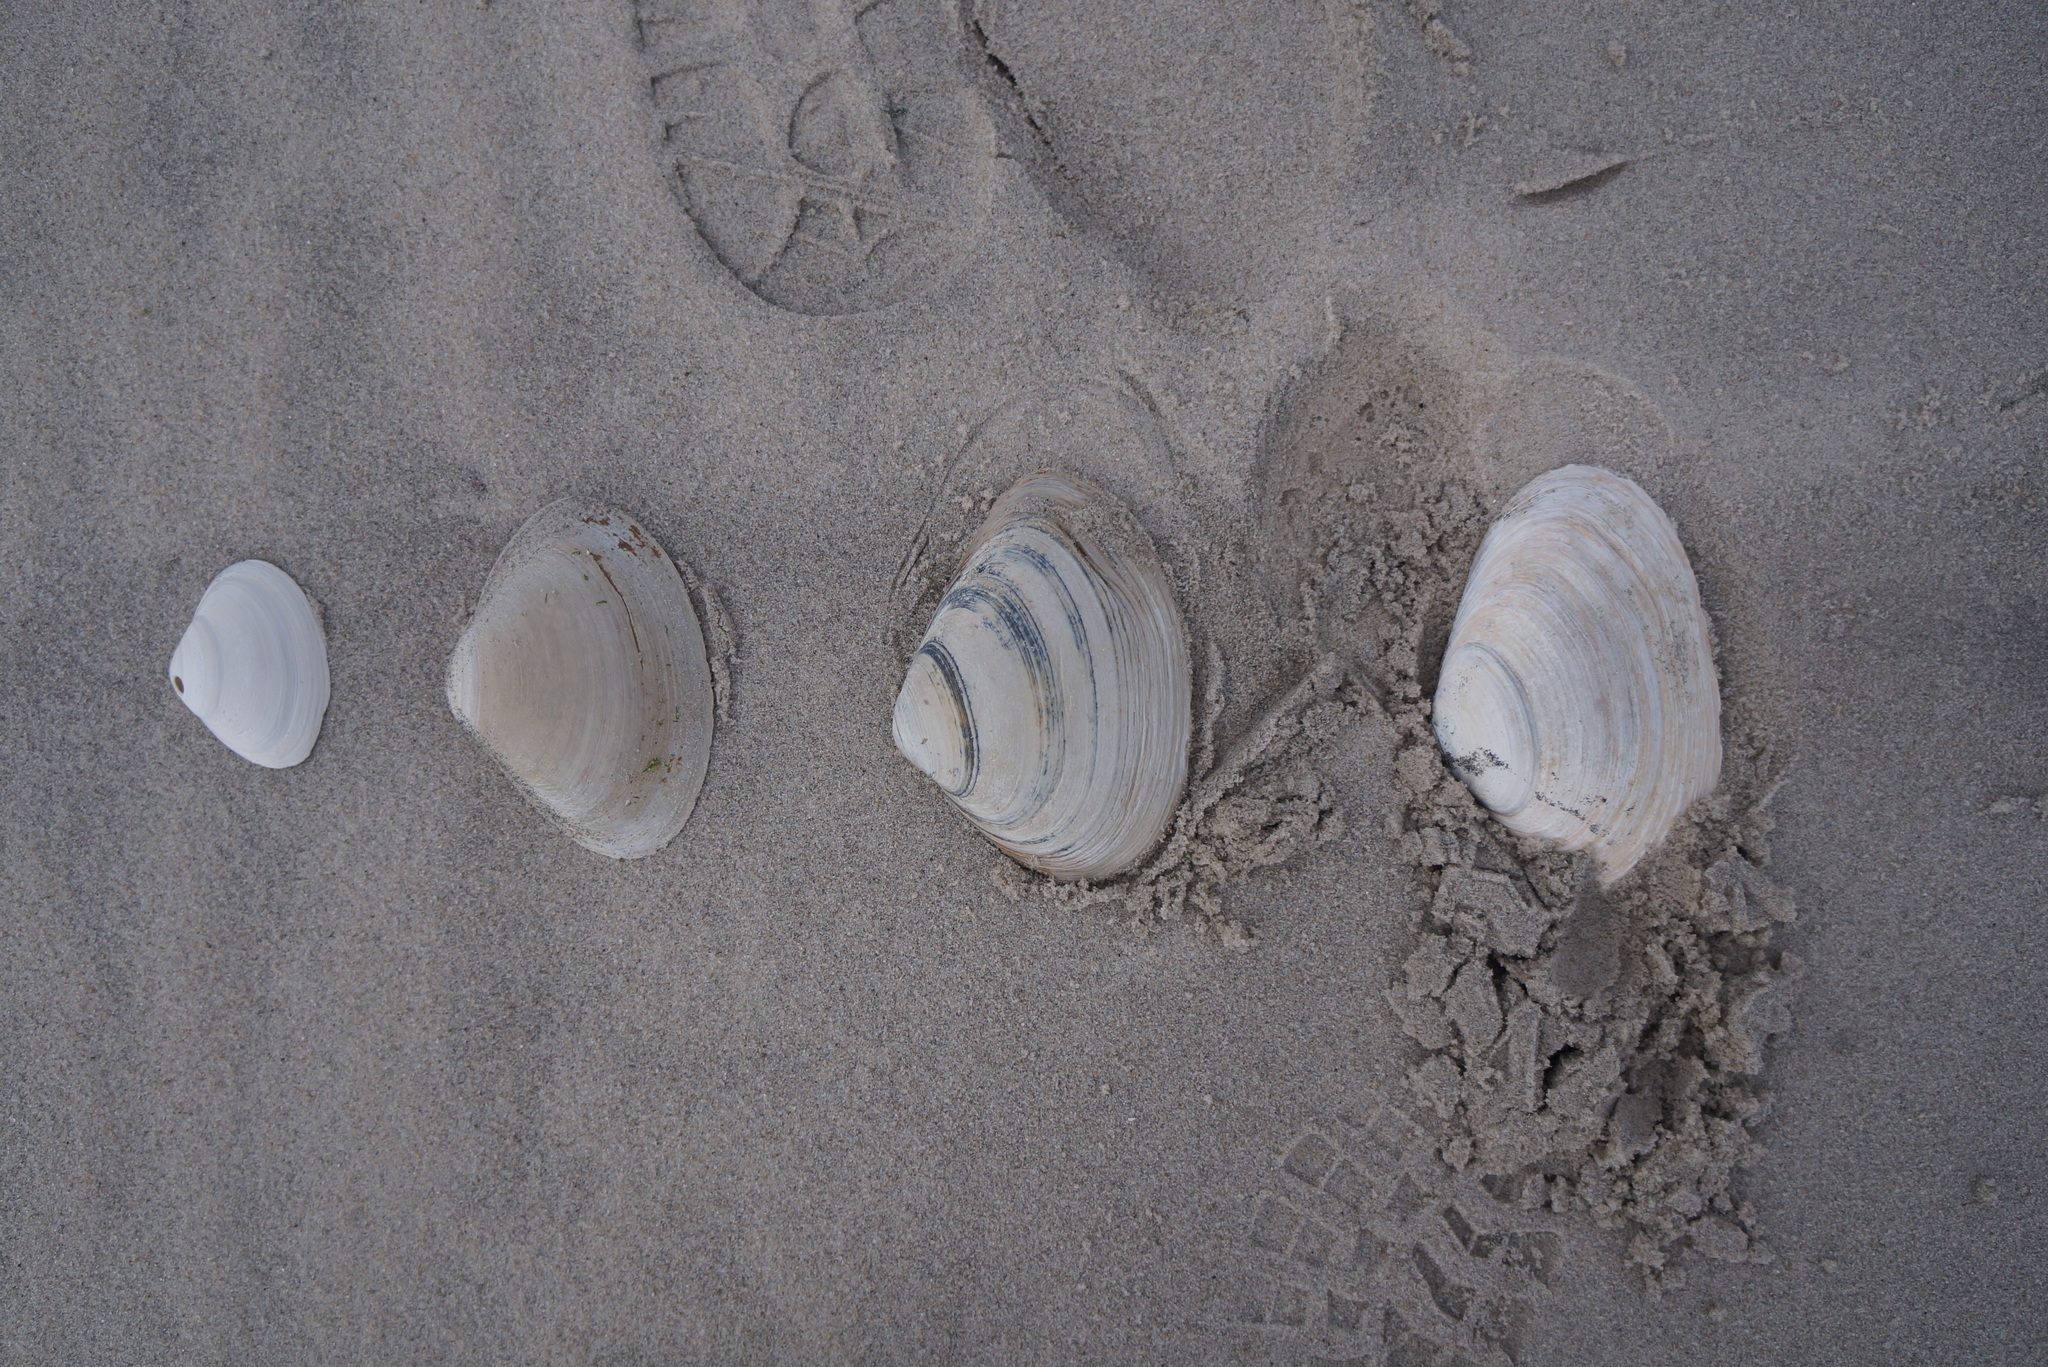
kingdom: Animalia
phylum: Mollusca
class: Bivalvia
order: Venerida
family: Mactridae
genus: Spisula
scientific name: Spisula solidissima
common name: Atlantic surf clam
